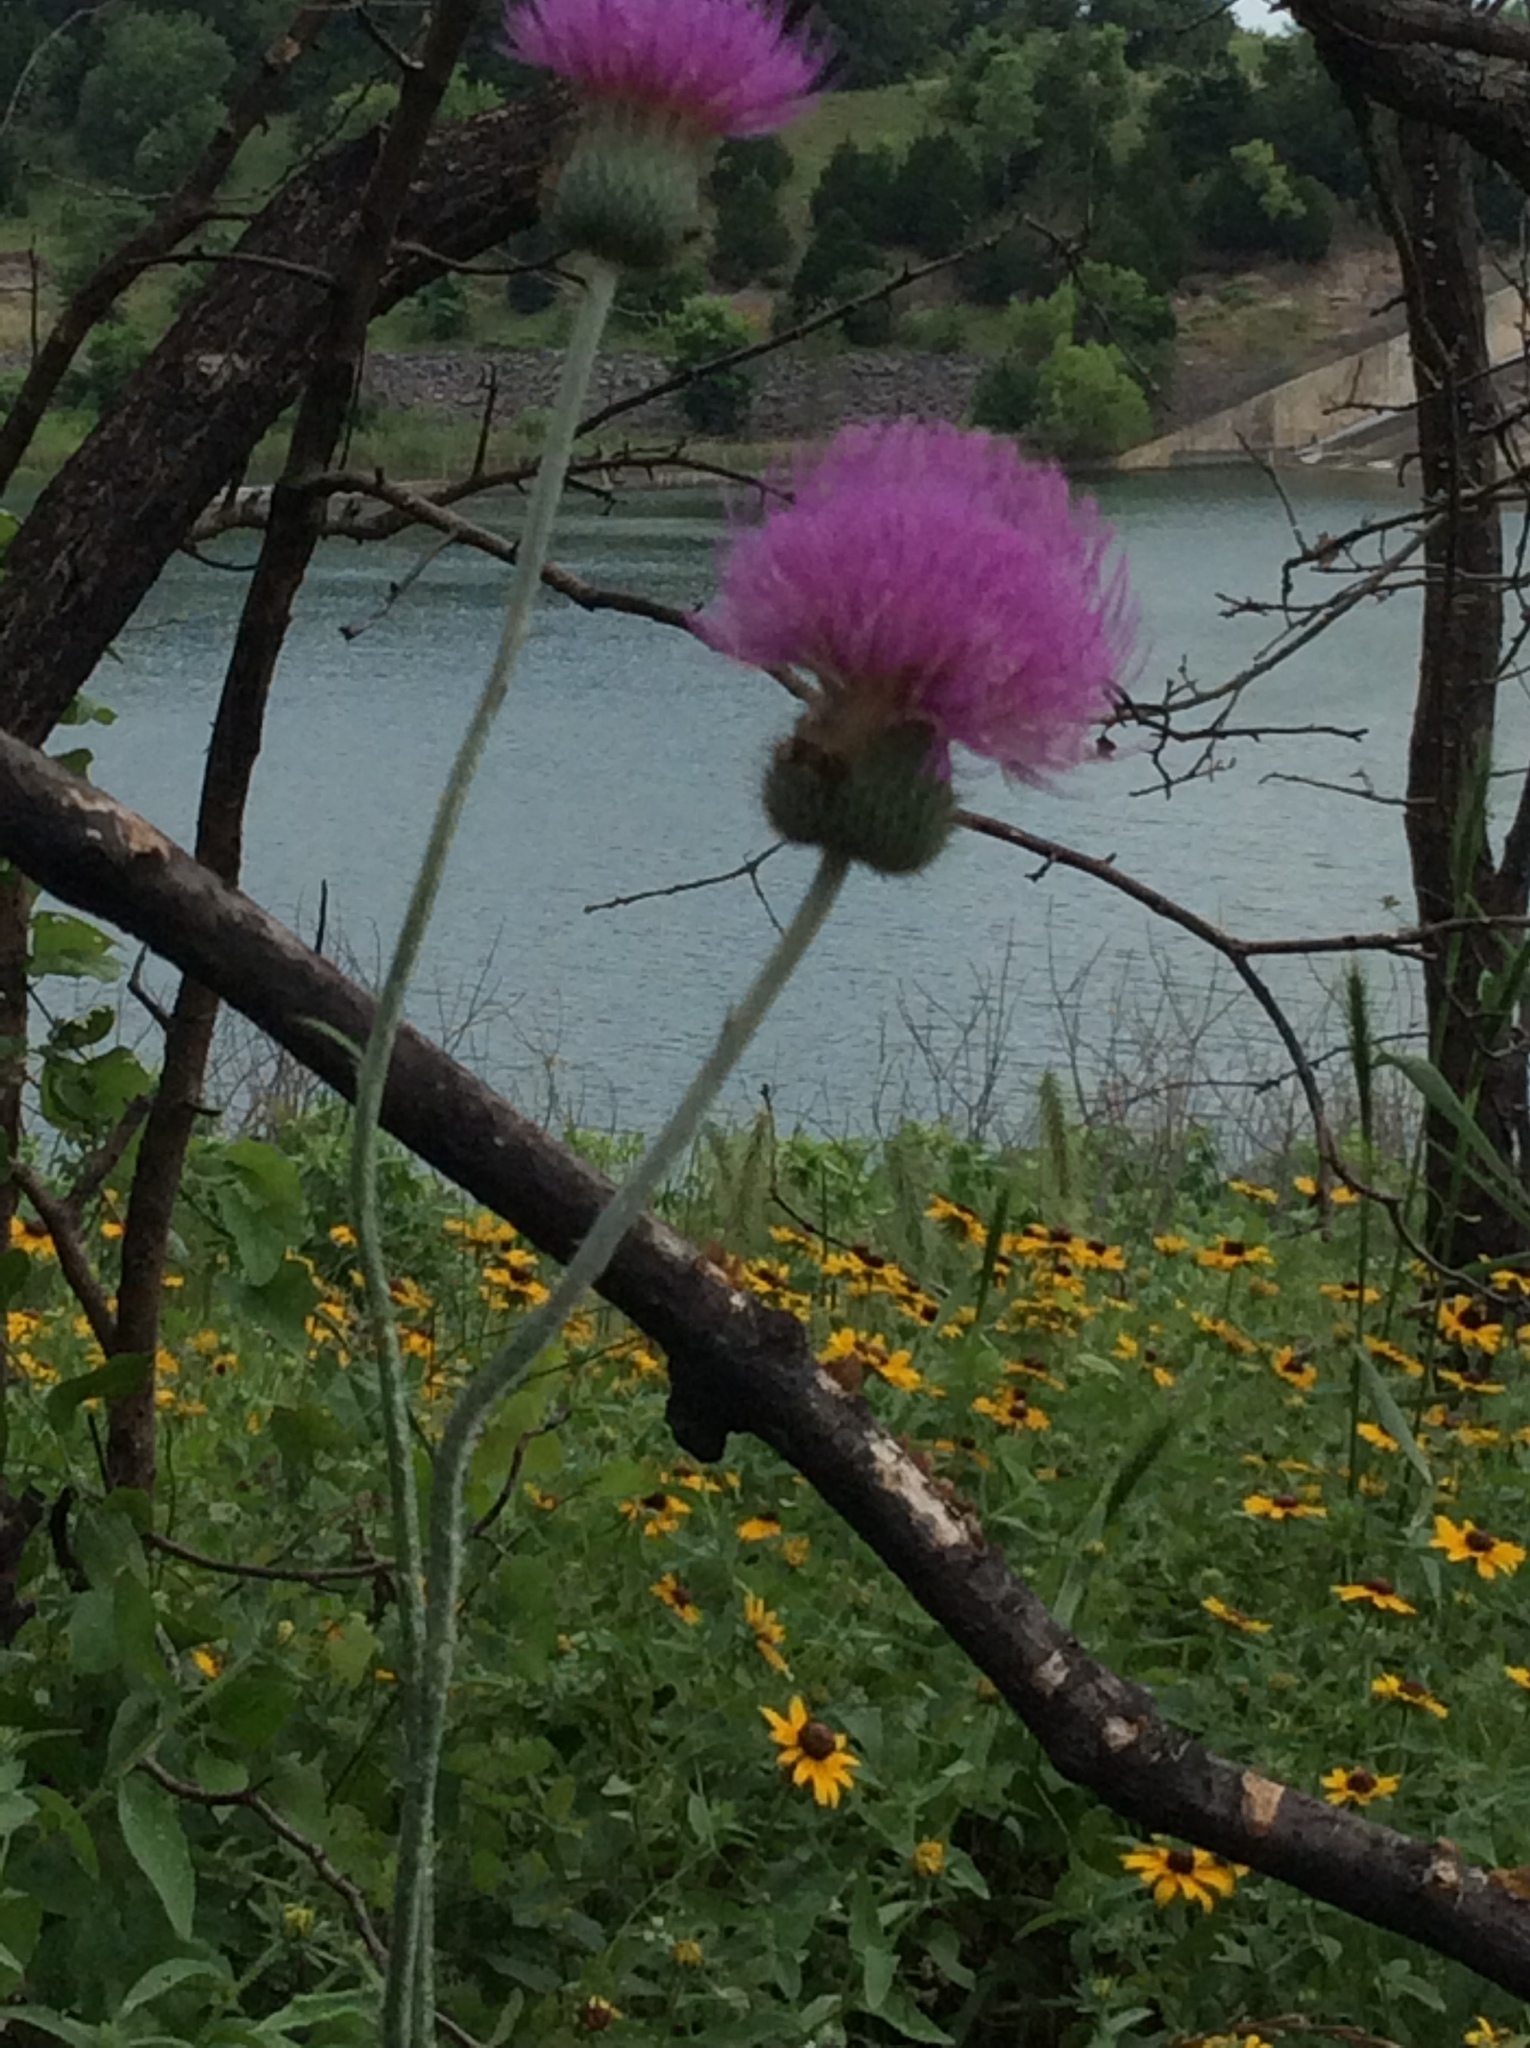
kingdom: Plantae
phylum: Tracheophyta
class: Magnoliopsida
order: Asterales
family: Asteraceae
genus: Cirsium
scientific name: Cirsium texanum
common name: Texas purple thistle
